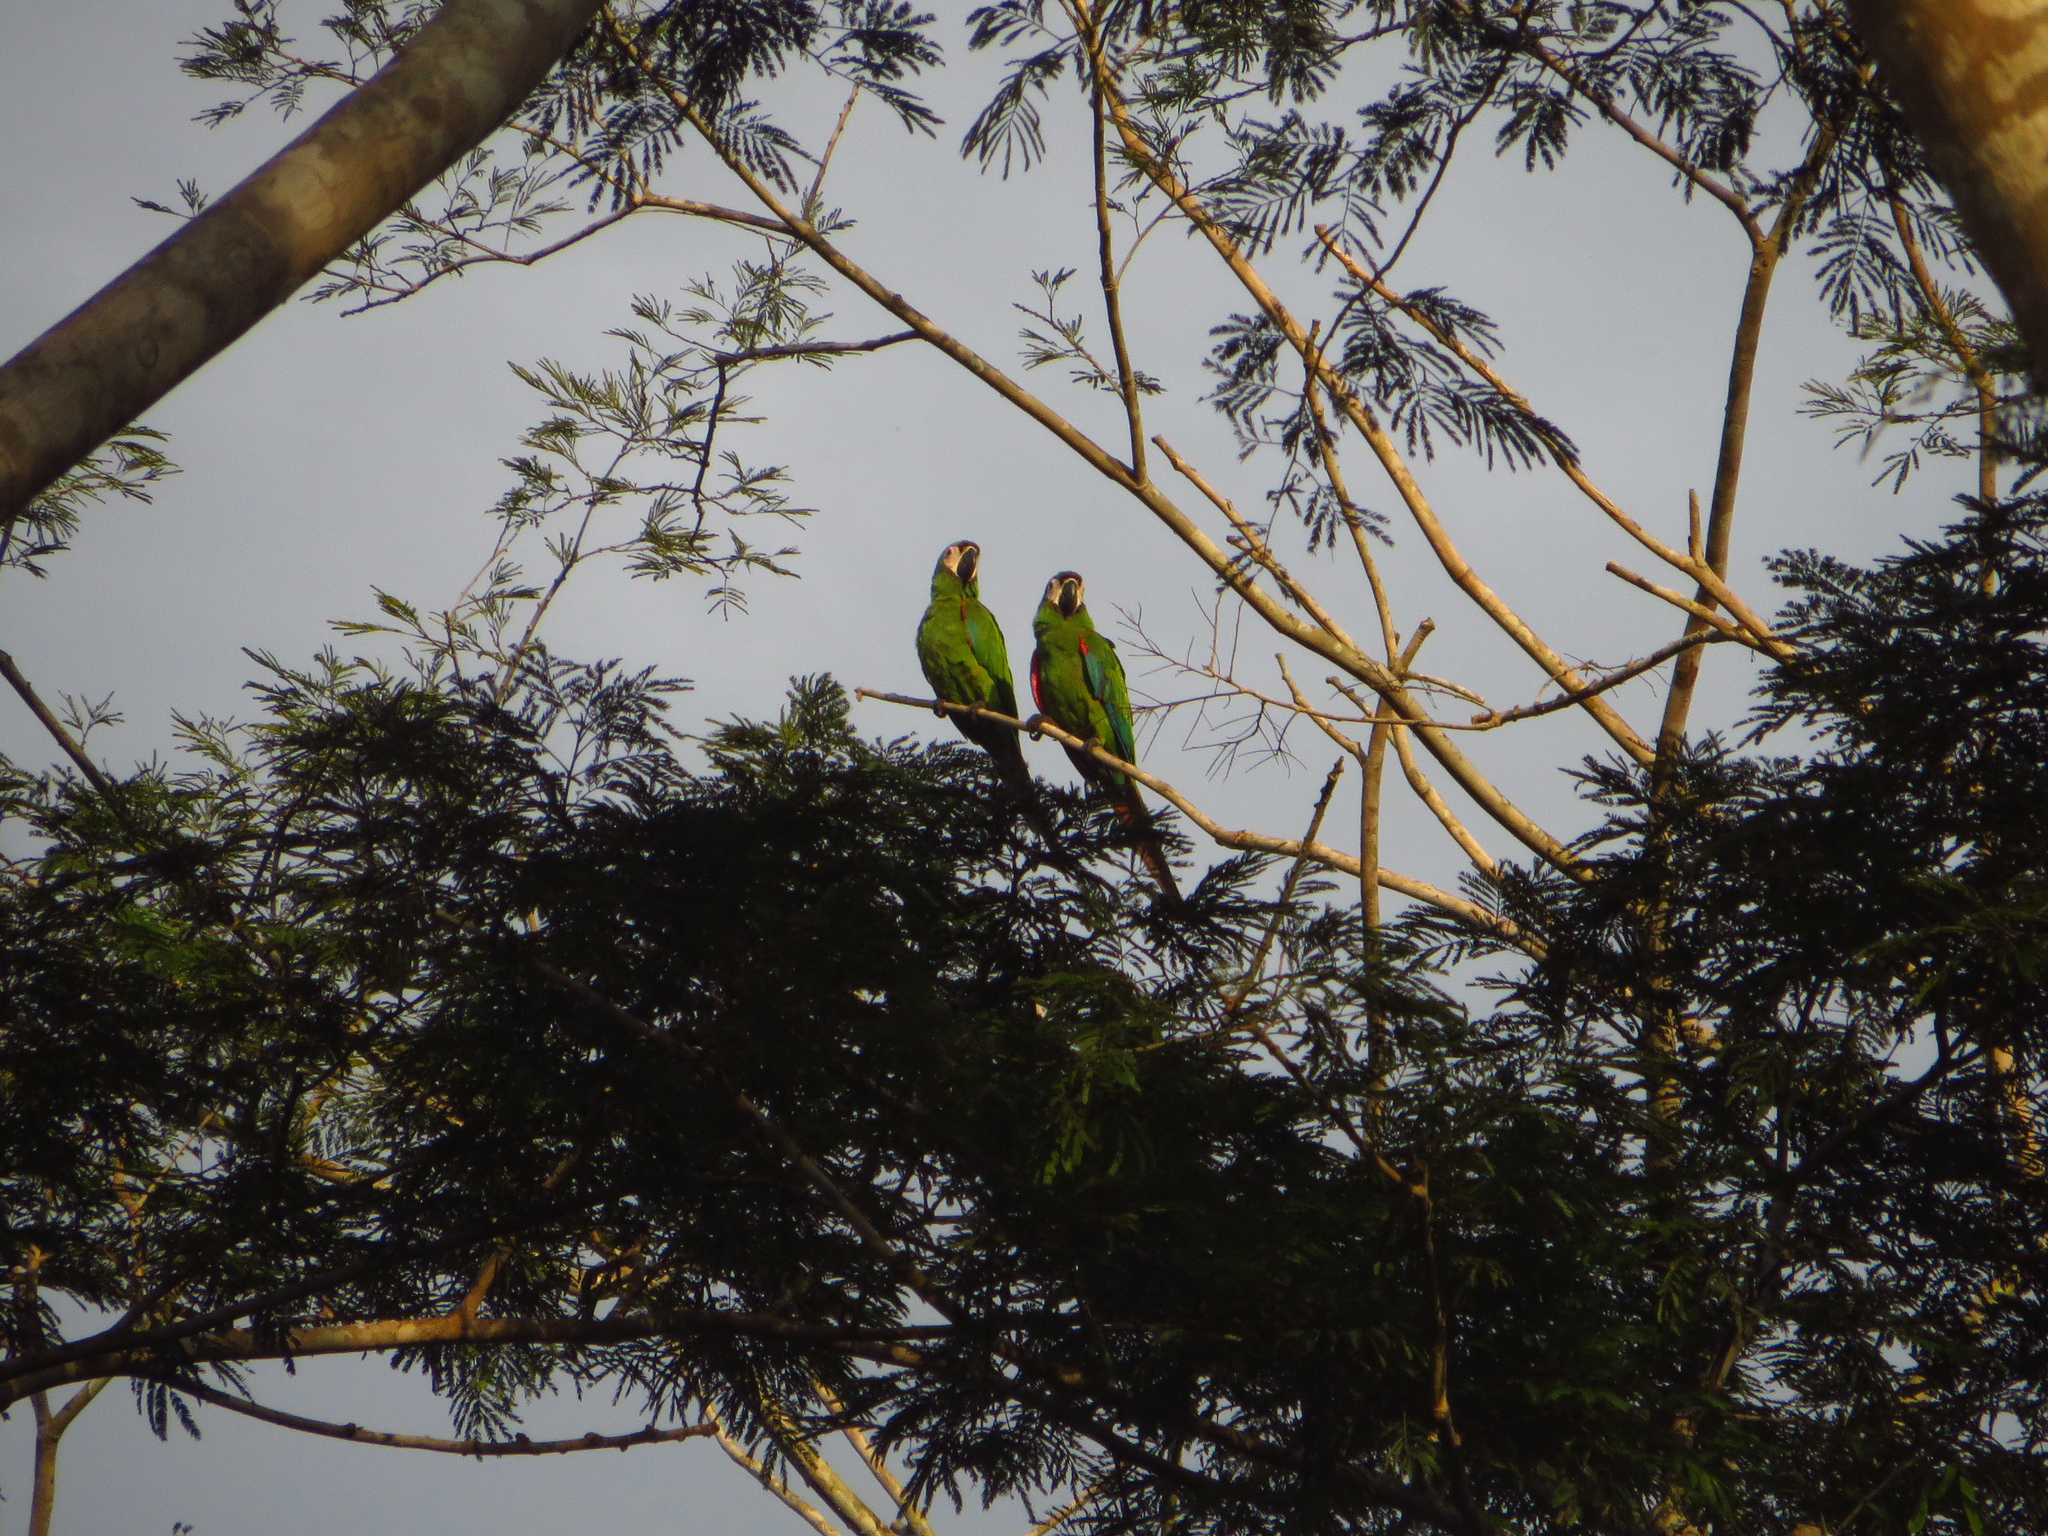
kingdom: Animalia
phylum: Chordata
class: Aves
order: Psittaciformes
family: Psittacidae
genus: Ara
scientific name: Ara severus
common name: Chestnut-fronted macaw
